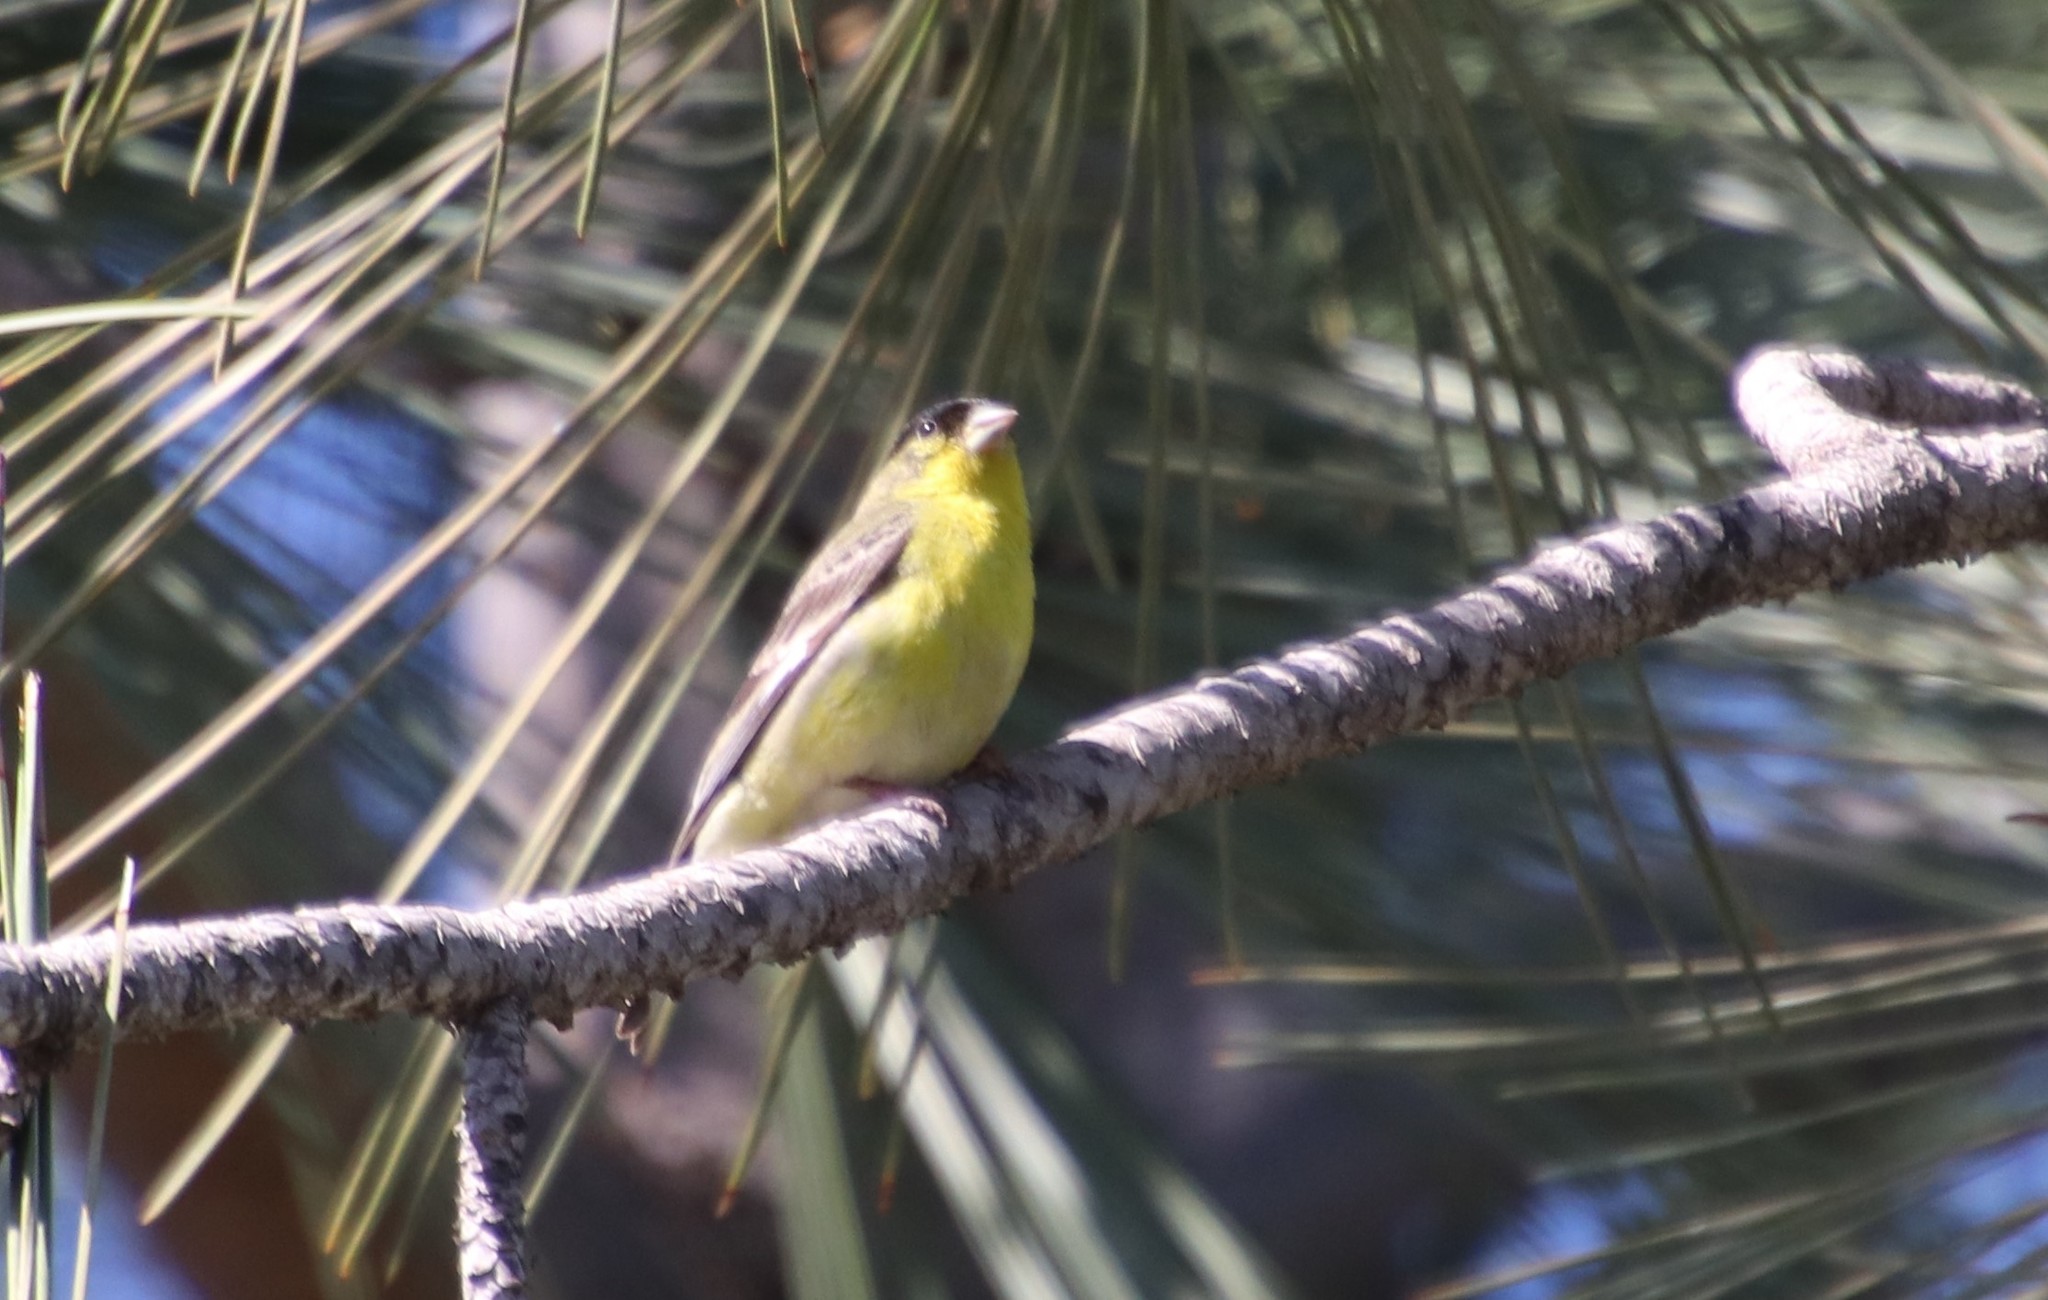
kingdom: Animalia
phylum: Chordata
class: Aves
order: Passeriformes
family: Fringillidae
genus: Spinus
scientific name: Spinus psaltria
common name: Lesser goldfinch
